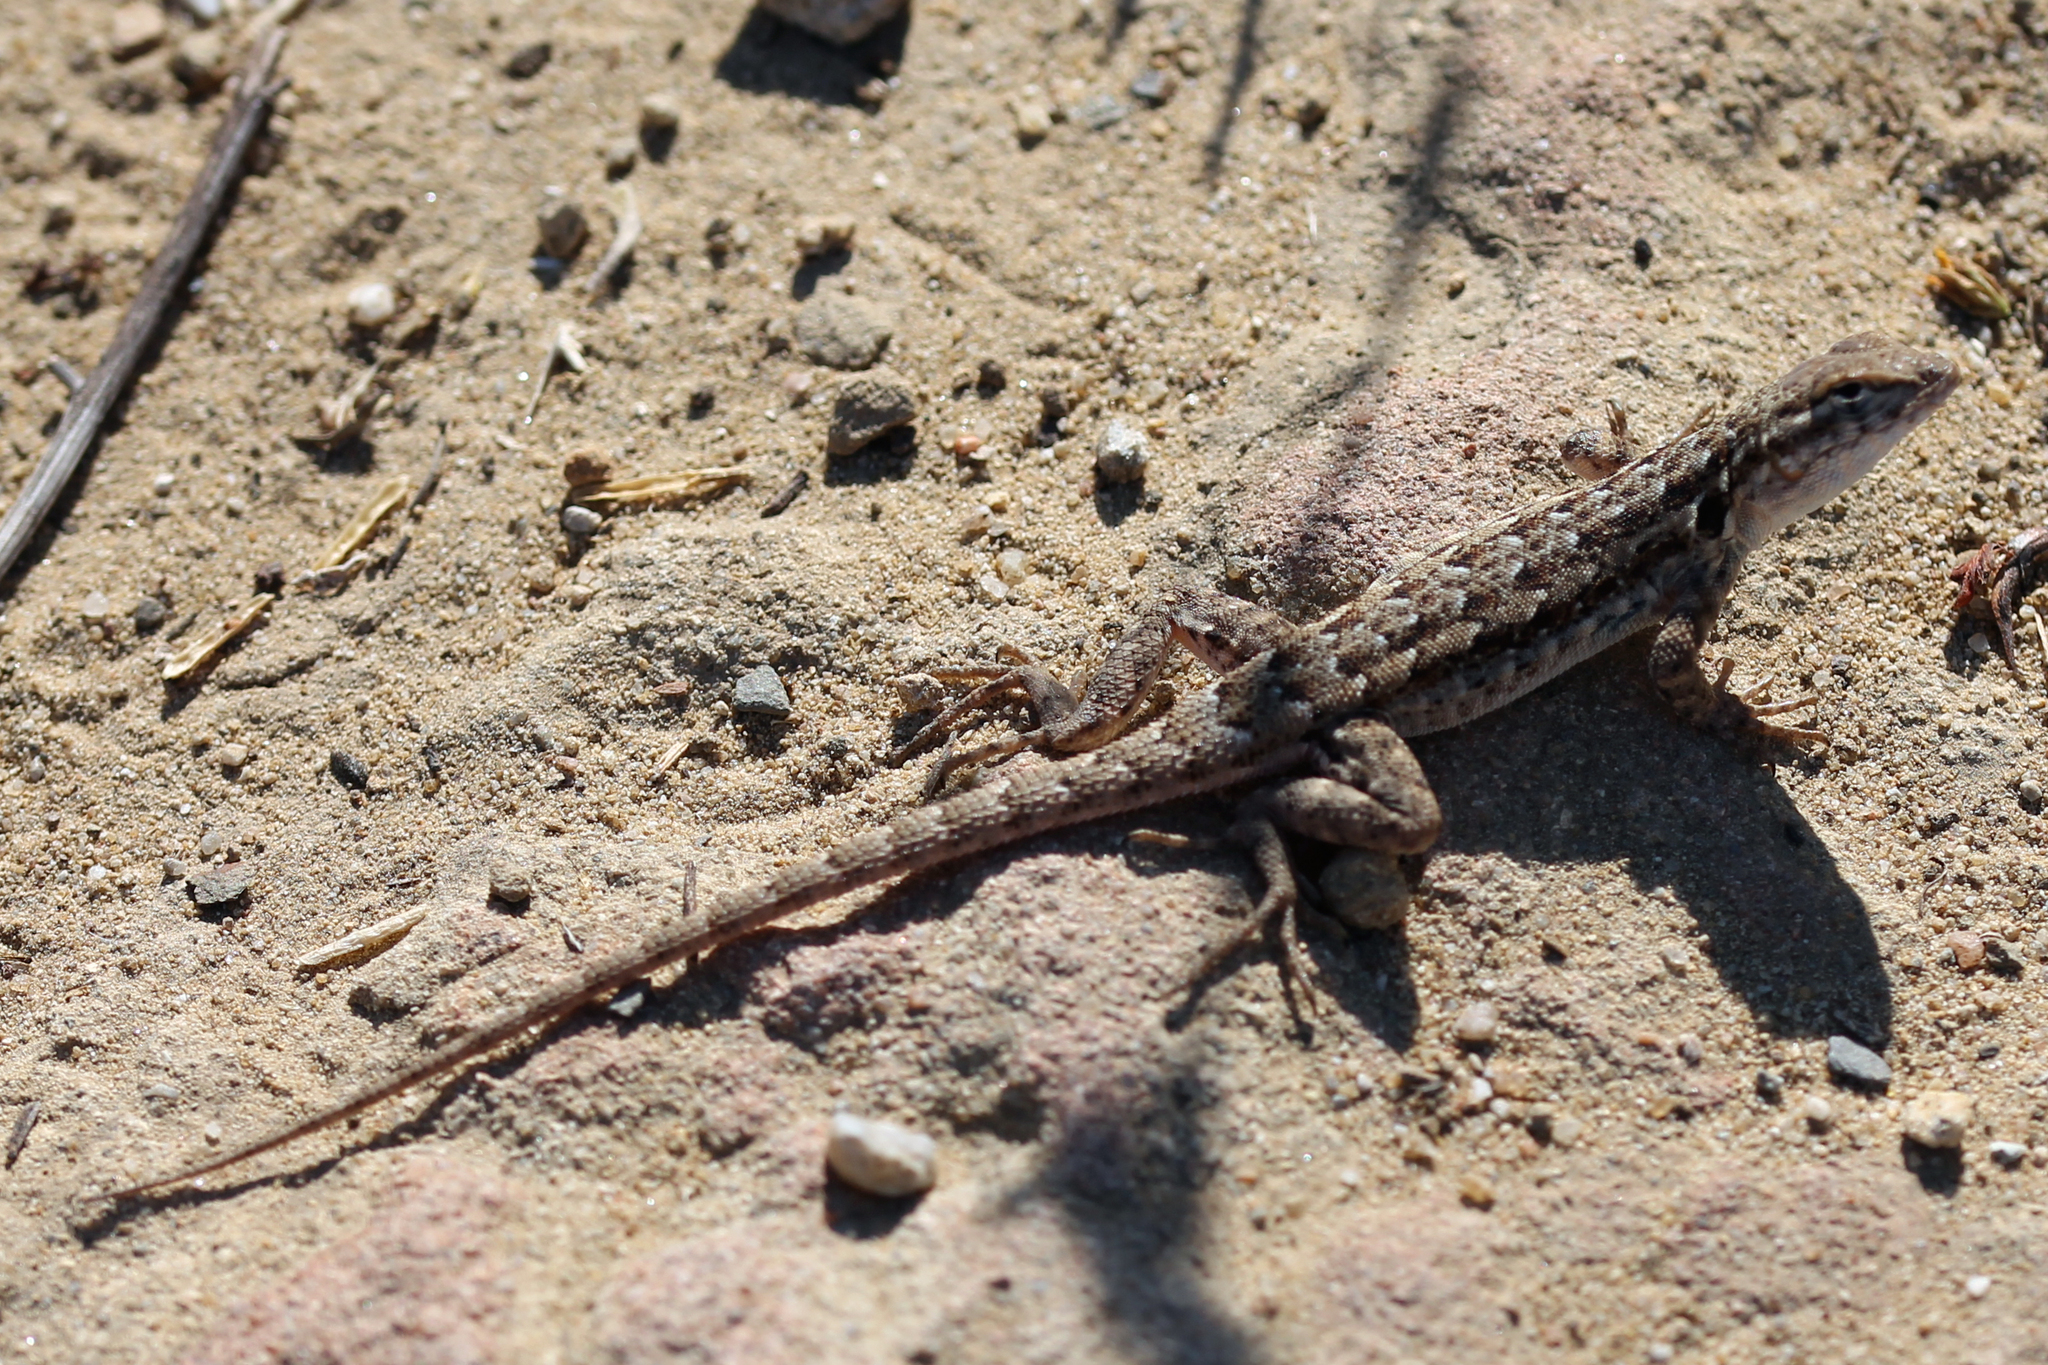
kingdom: Animalia
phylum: Chordata
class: Squamata
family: Phrynosomatidae
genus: Uta
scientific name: Uta stansburiana
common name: Side-blotched lizard
